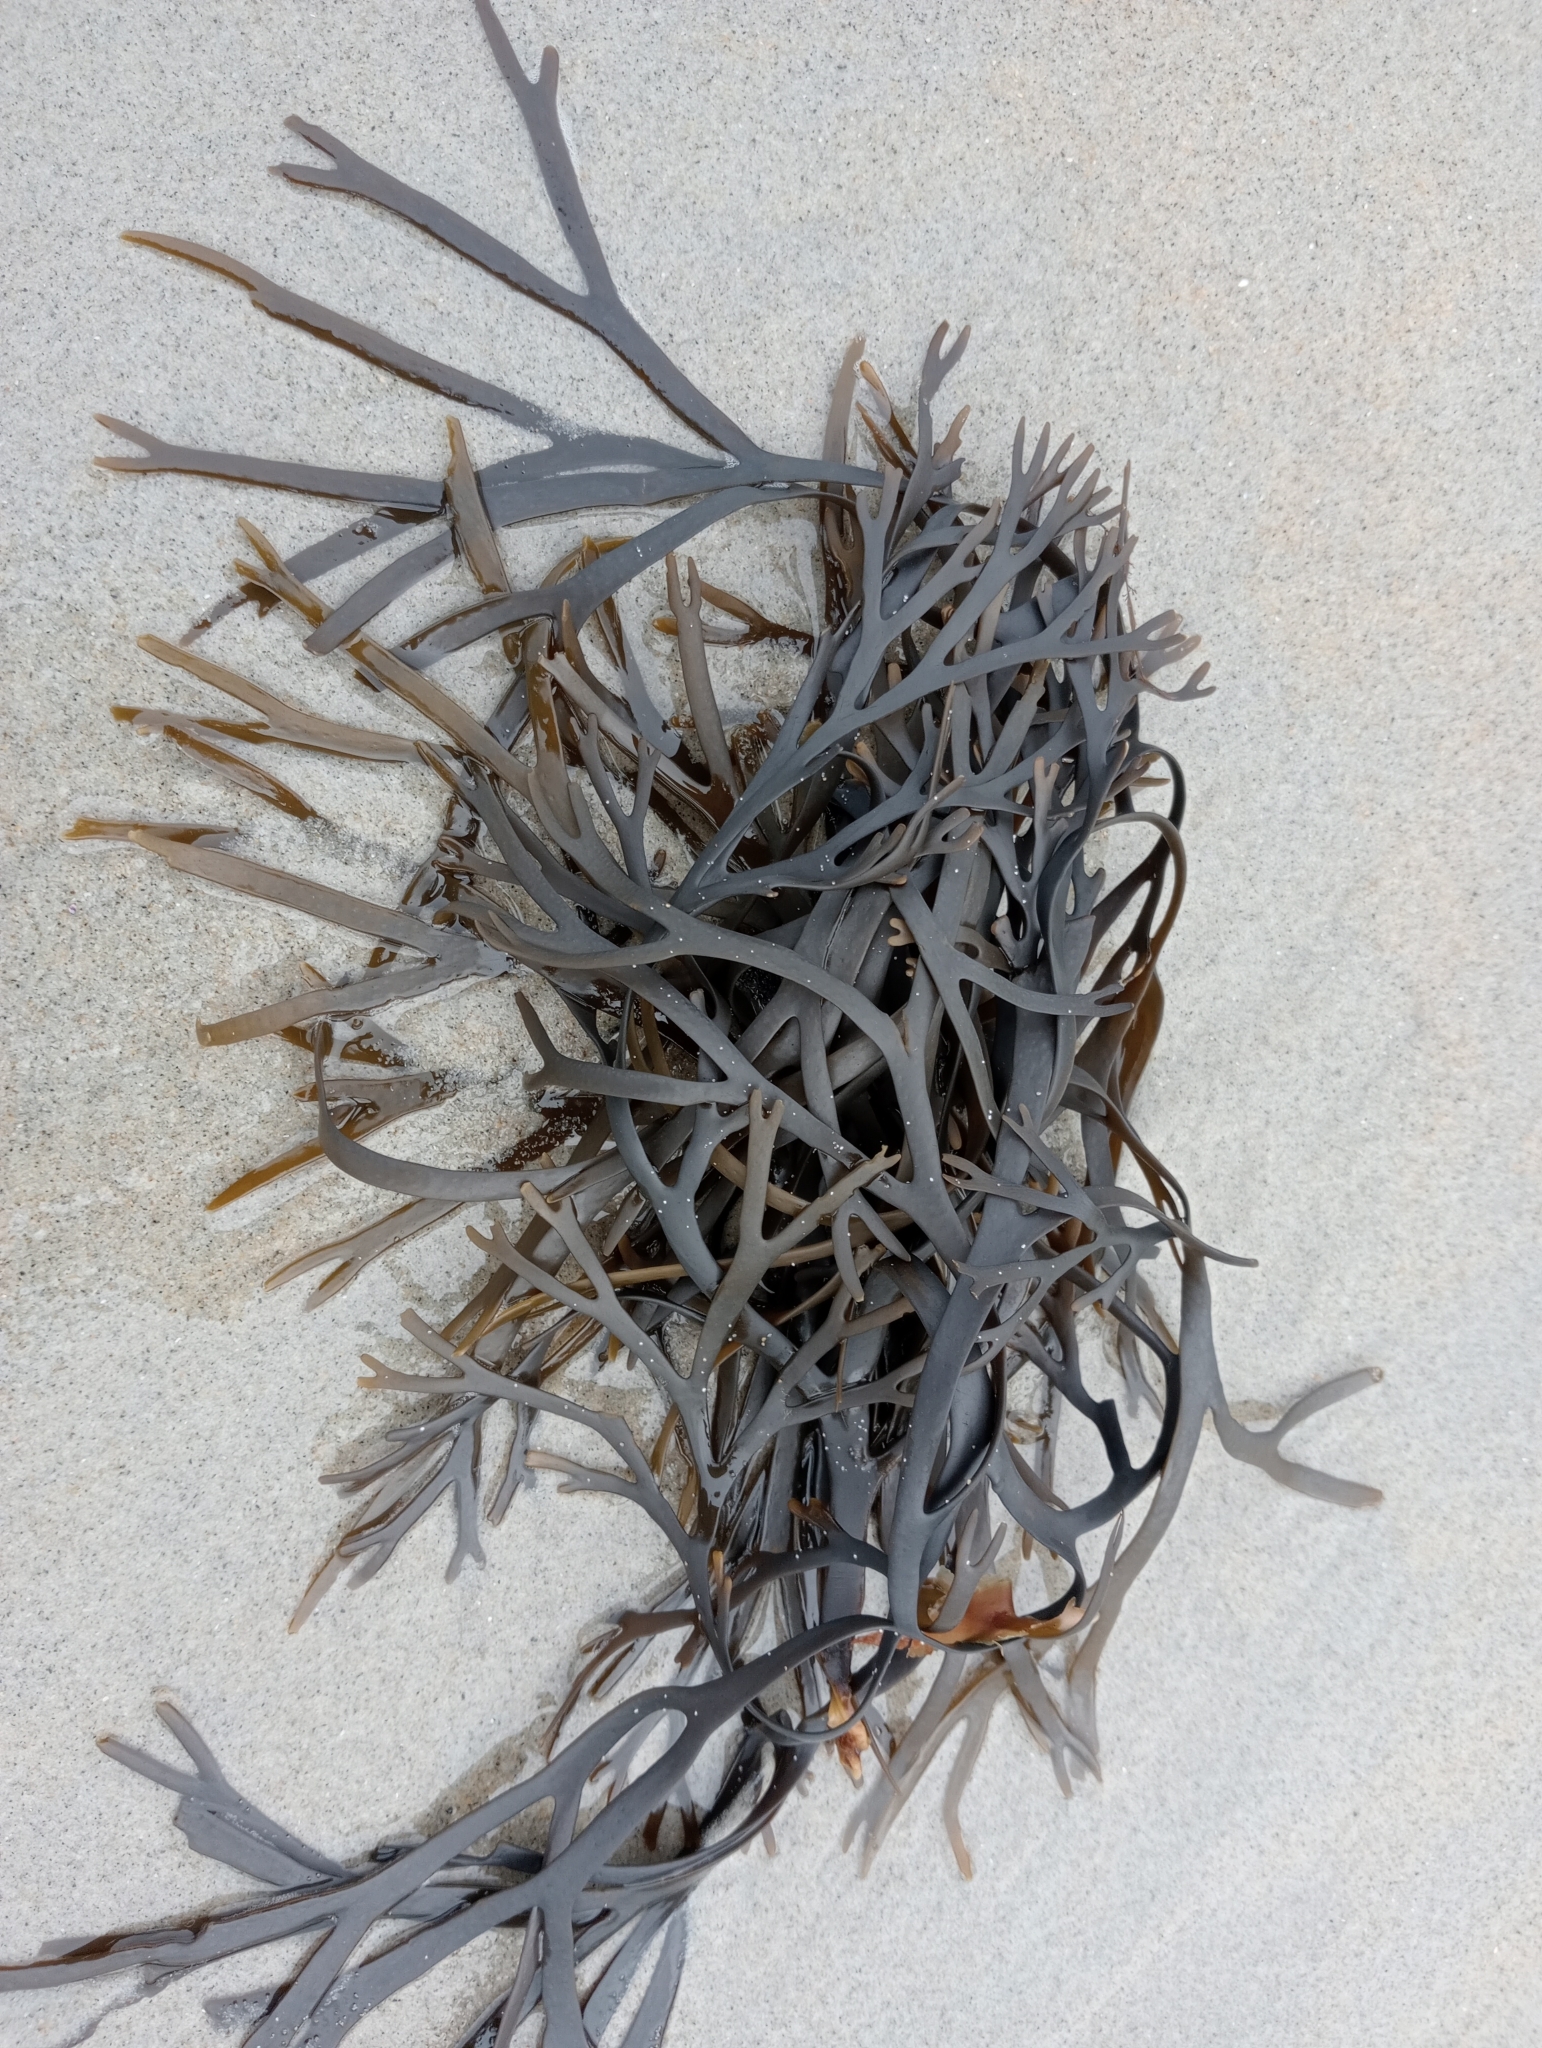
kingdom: Chromista
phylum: Ochrophyta
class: Phaeophyceae
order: Fucales
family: Xiphophoraceae
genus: Xiphophora
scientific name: Xiphophora gladiata
